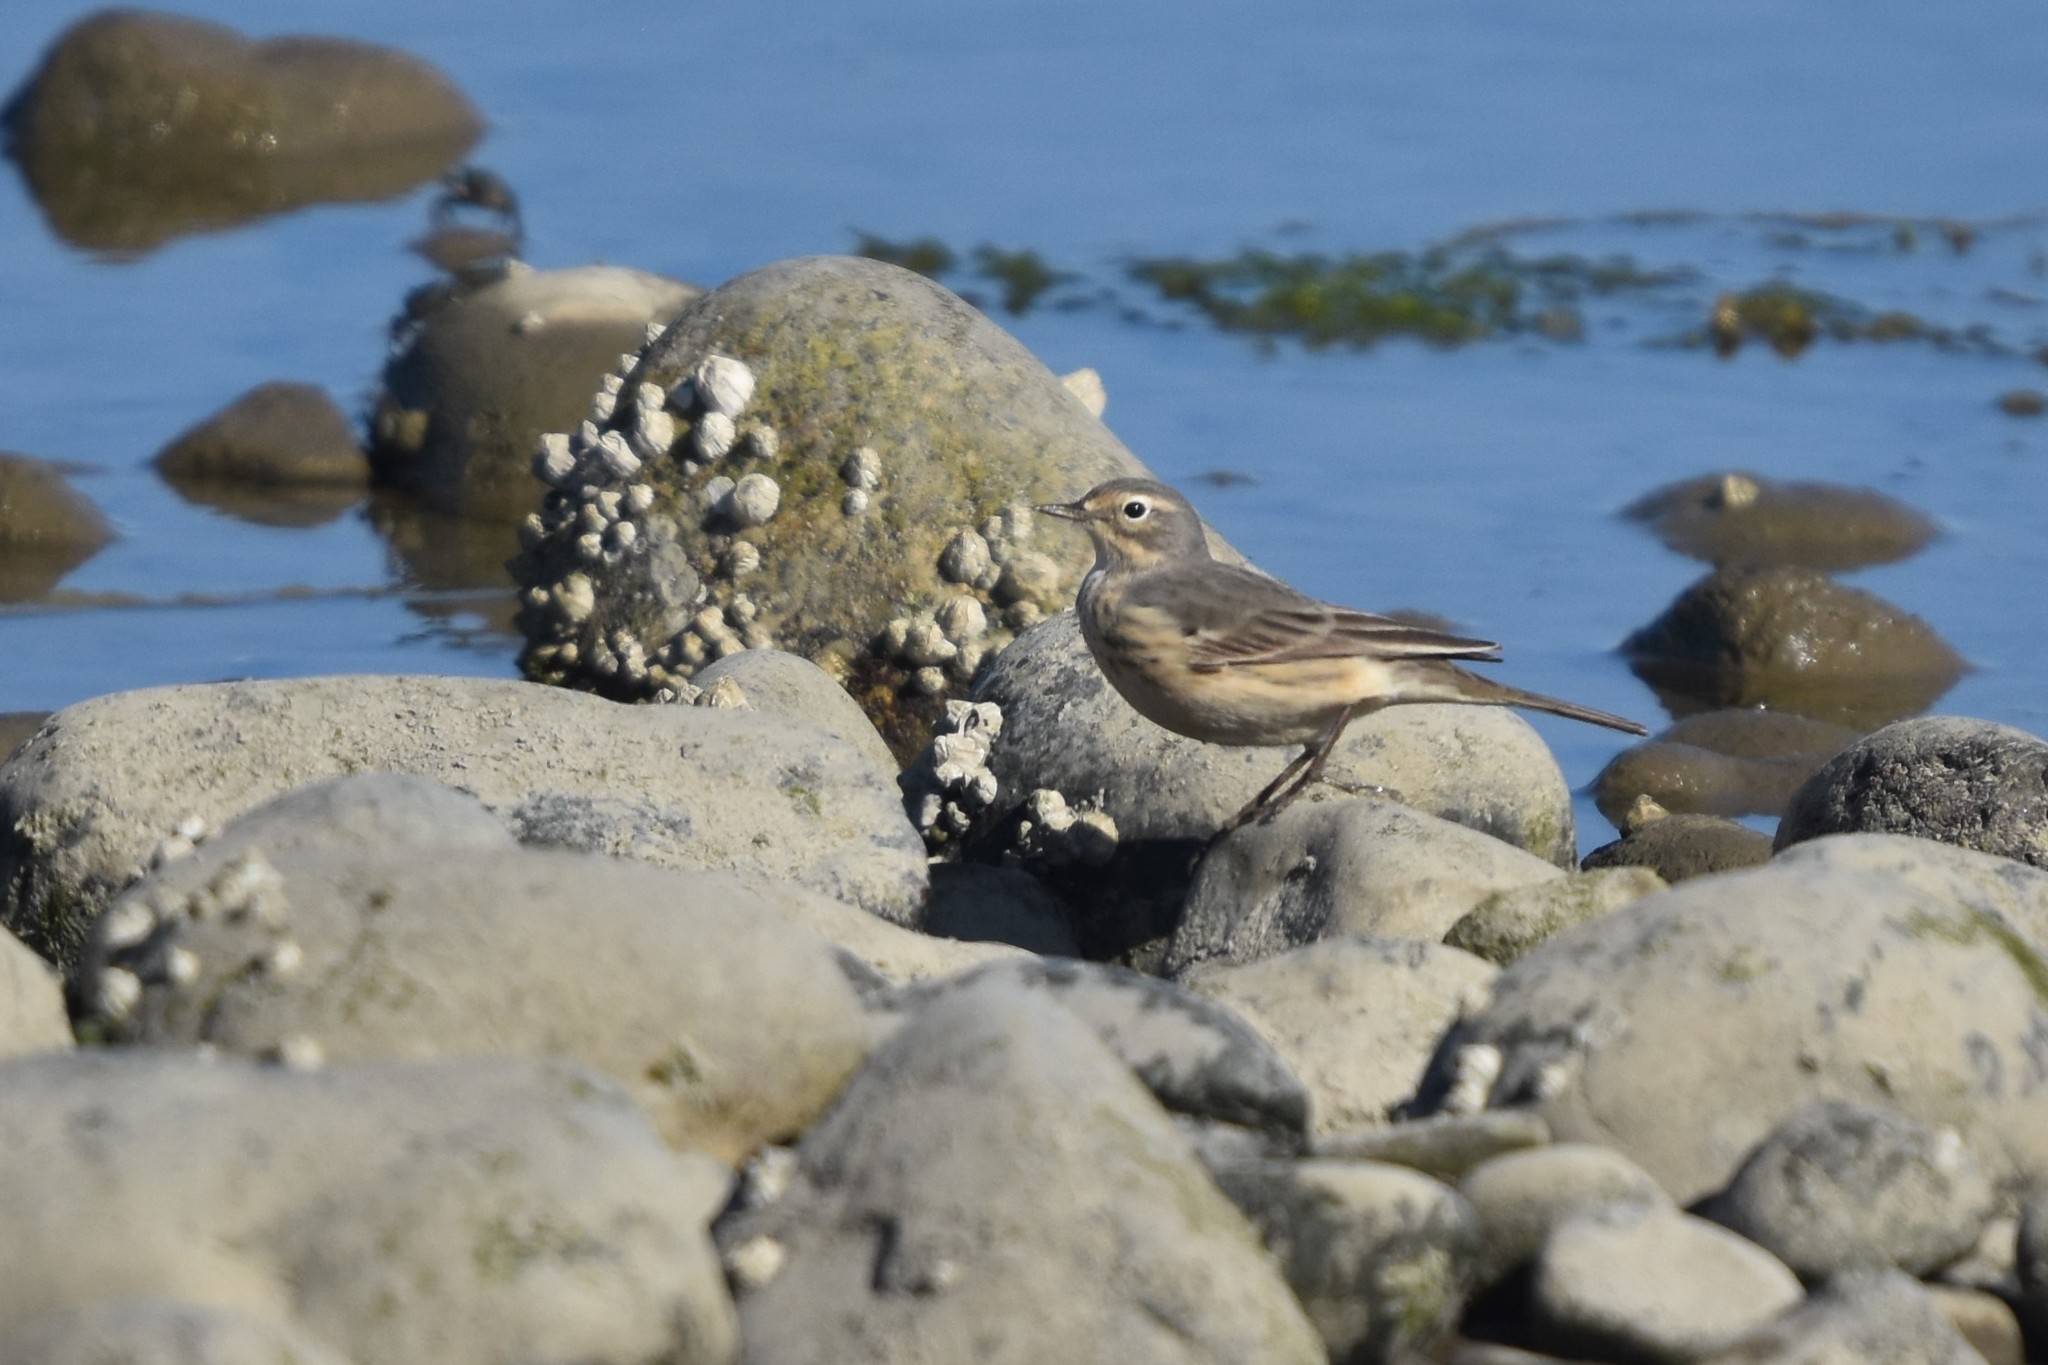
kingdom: Animalia
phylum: Chordata
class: Aves
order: Passeriformes
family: Motacillidae
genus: Anthus
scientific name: Anthus rubescens
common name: Buff-bellied pipit
